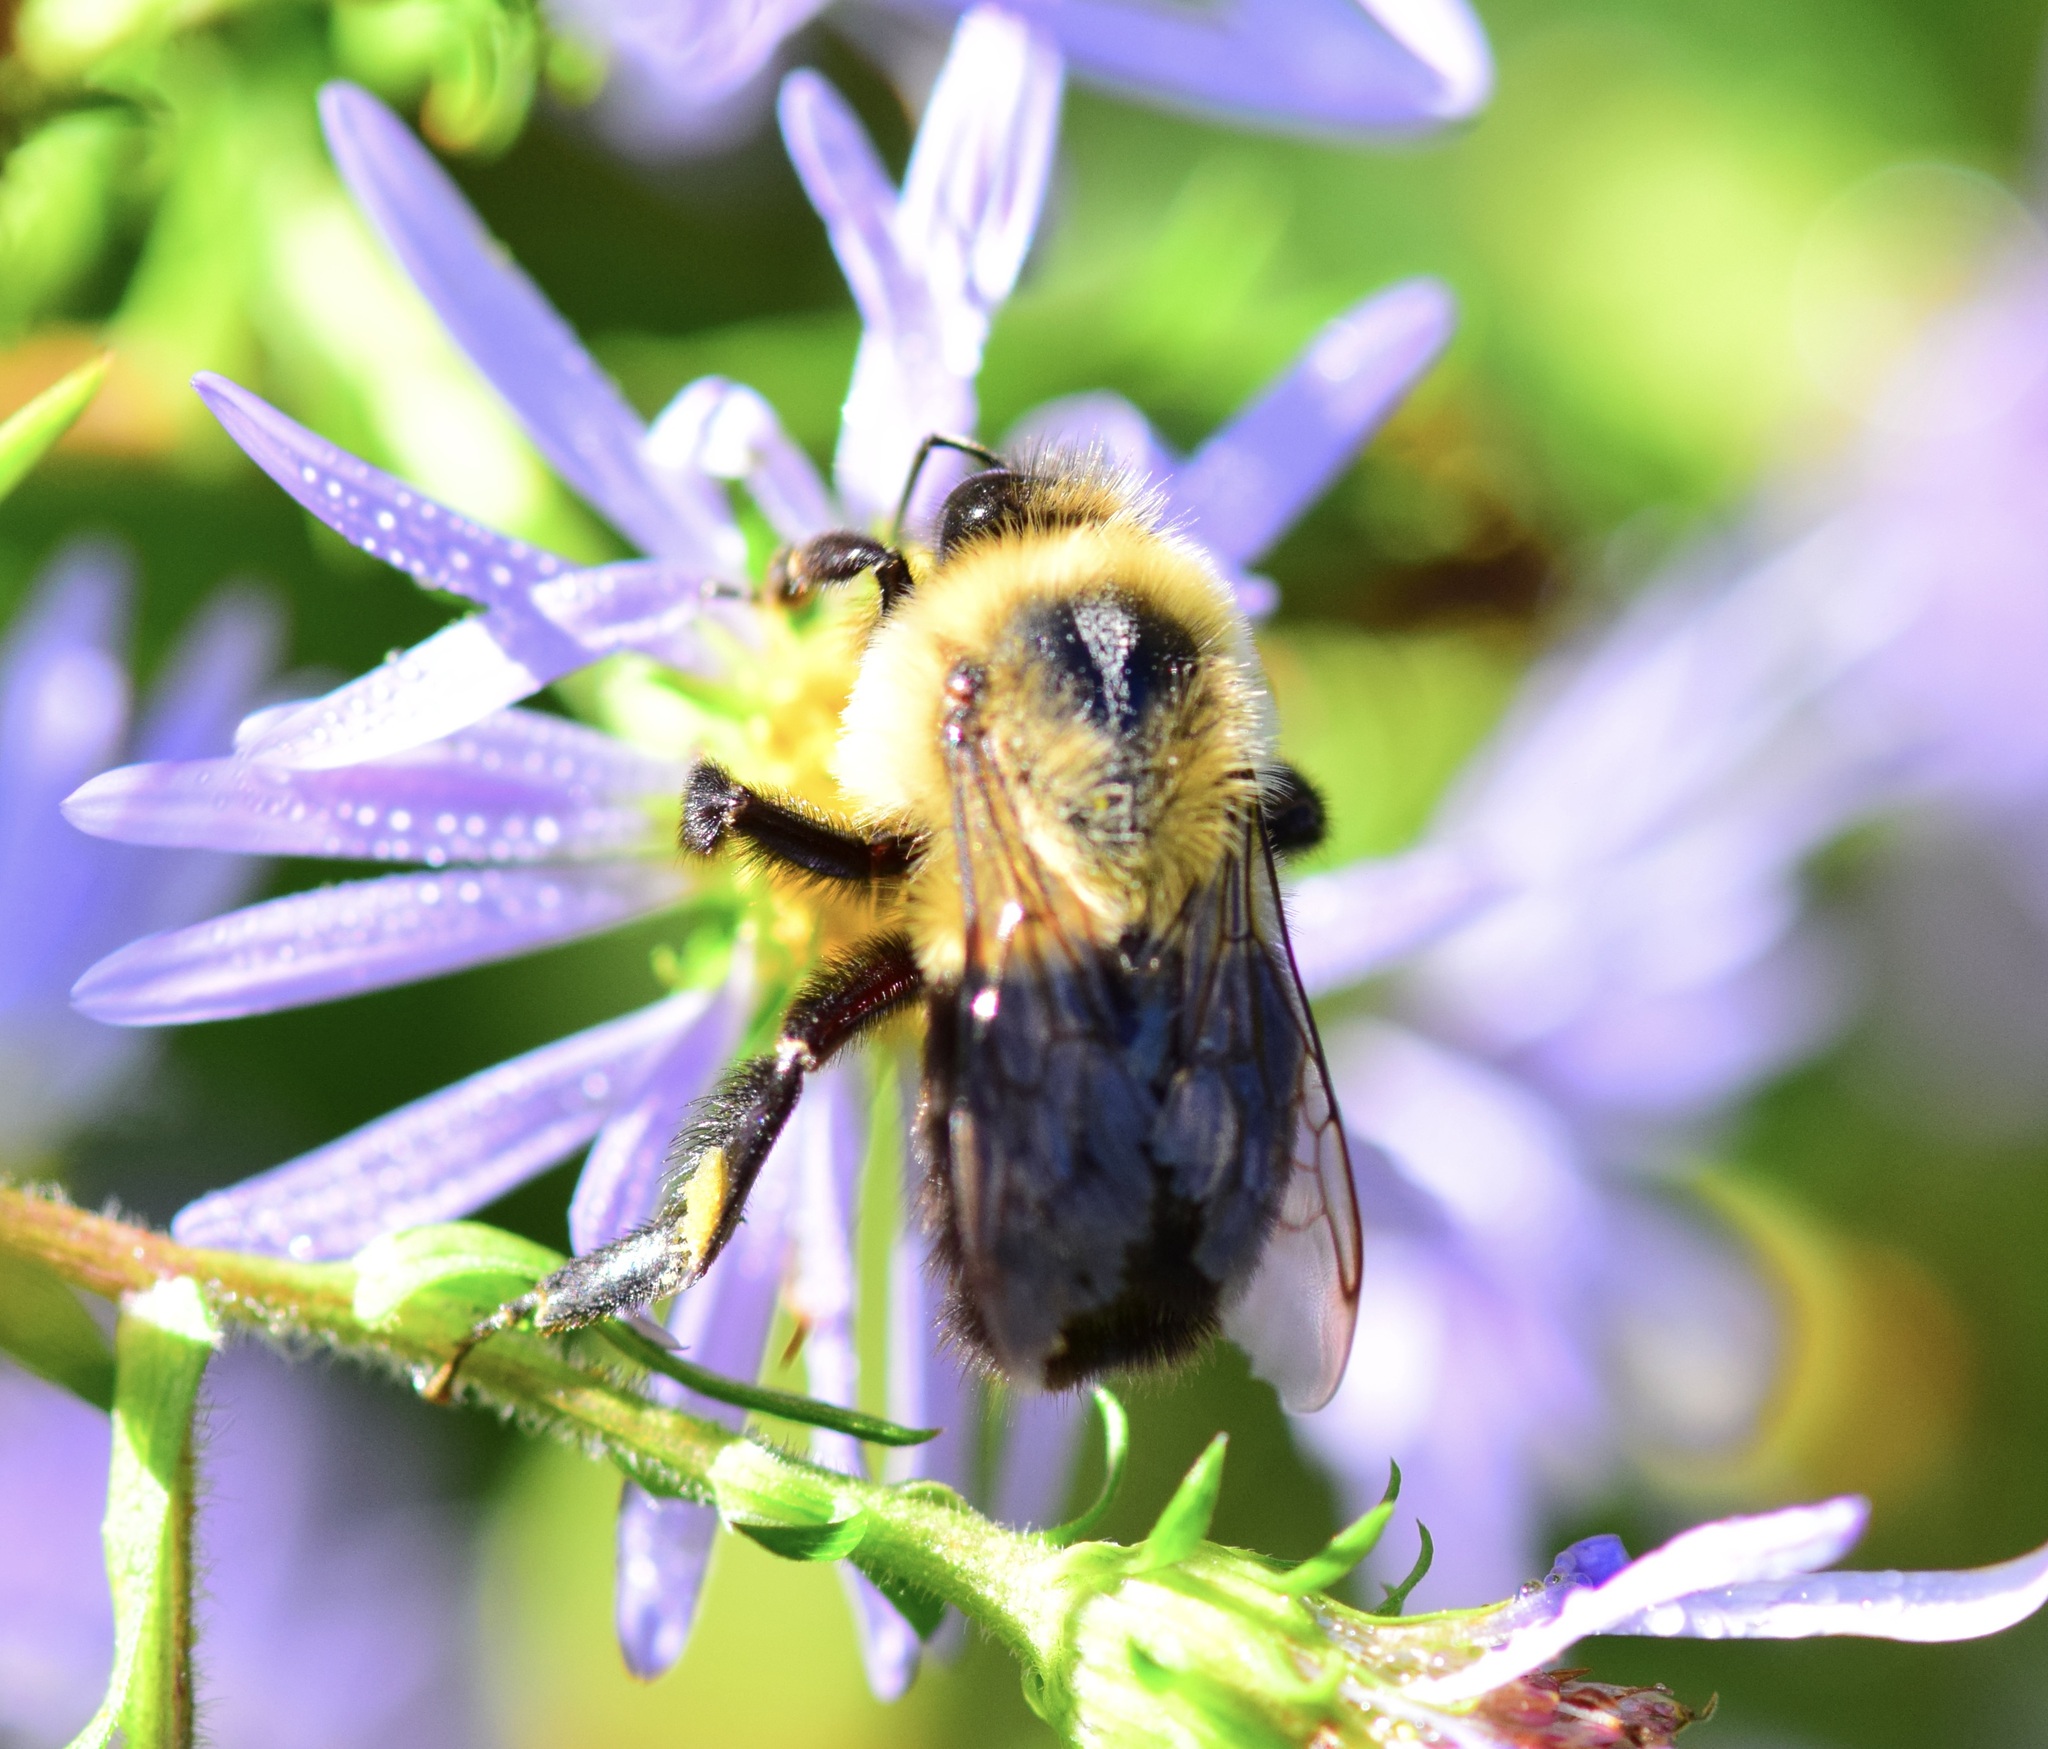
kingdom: Animalia
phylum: Arthropoda
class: Insecta
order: Hymenoptera
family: Apidae
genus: Bombus
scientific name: Bombus impatiens
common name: Common eastern bumble bee
